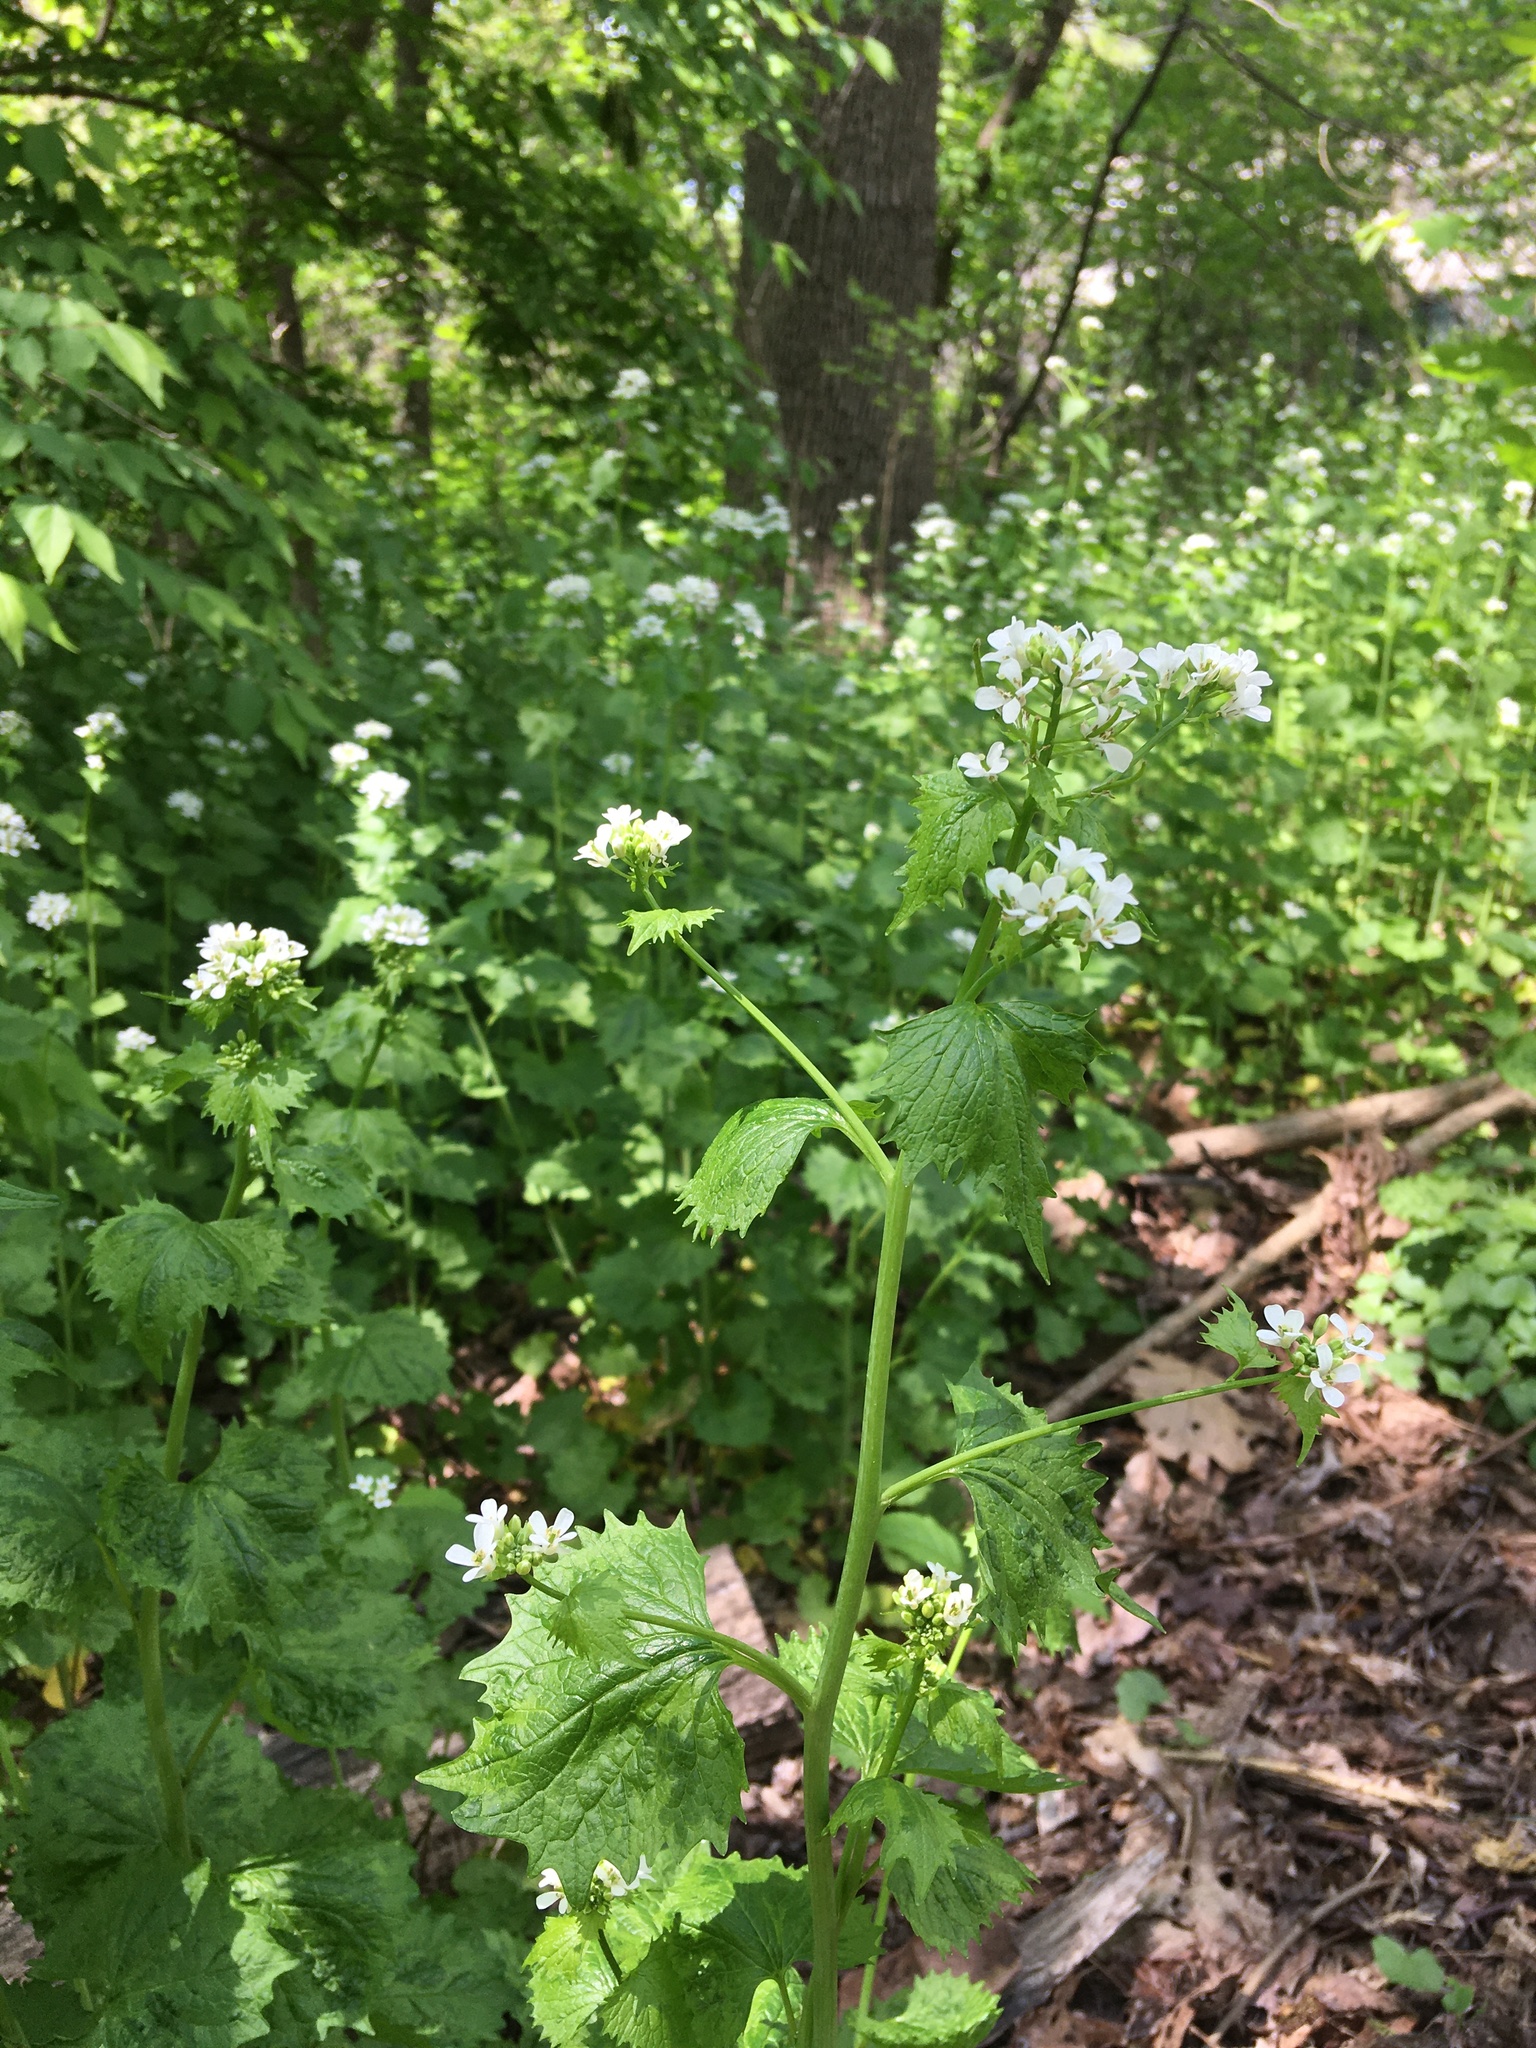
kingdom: Plantae
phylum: Tracheophyta
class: Magnoliopsida
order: Brassicales
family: Brassicaceae
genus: Alliaria
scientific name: Alliaria petiolata
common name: Garlic mustard
